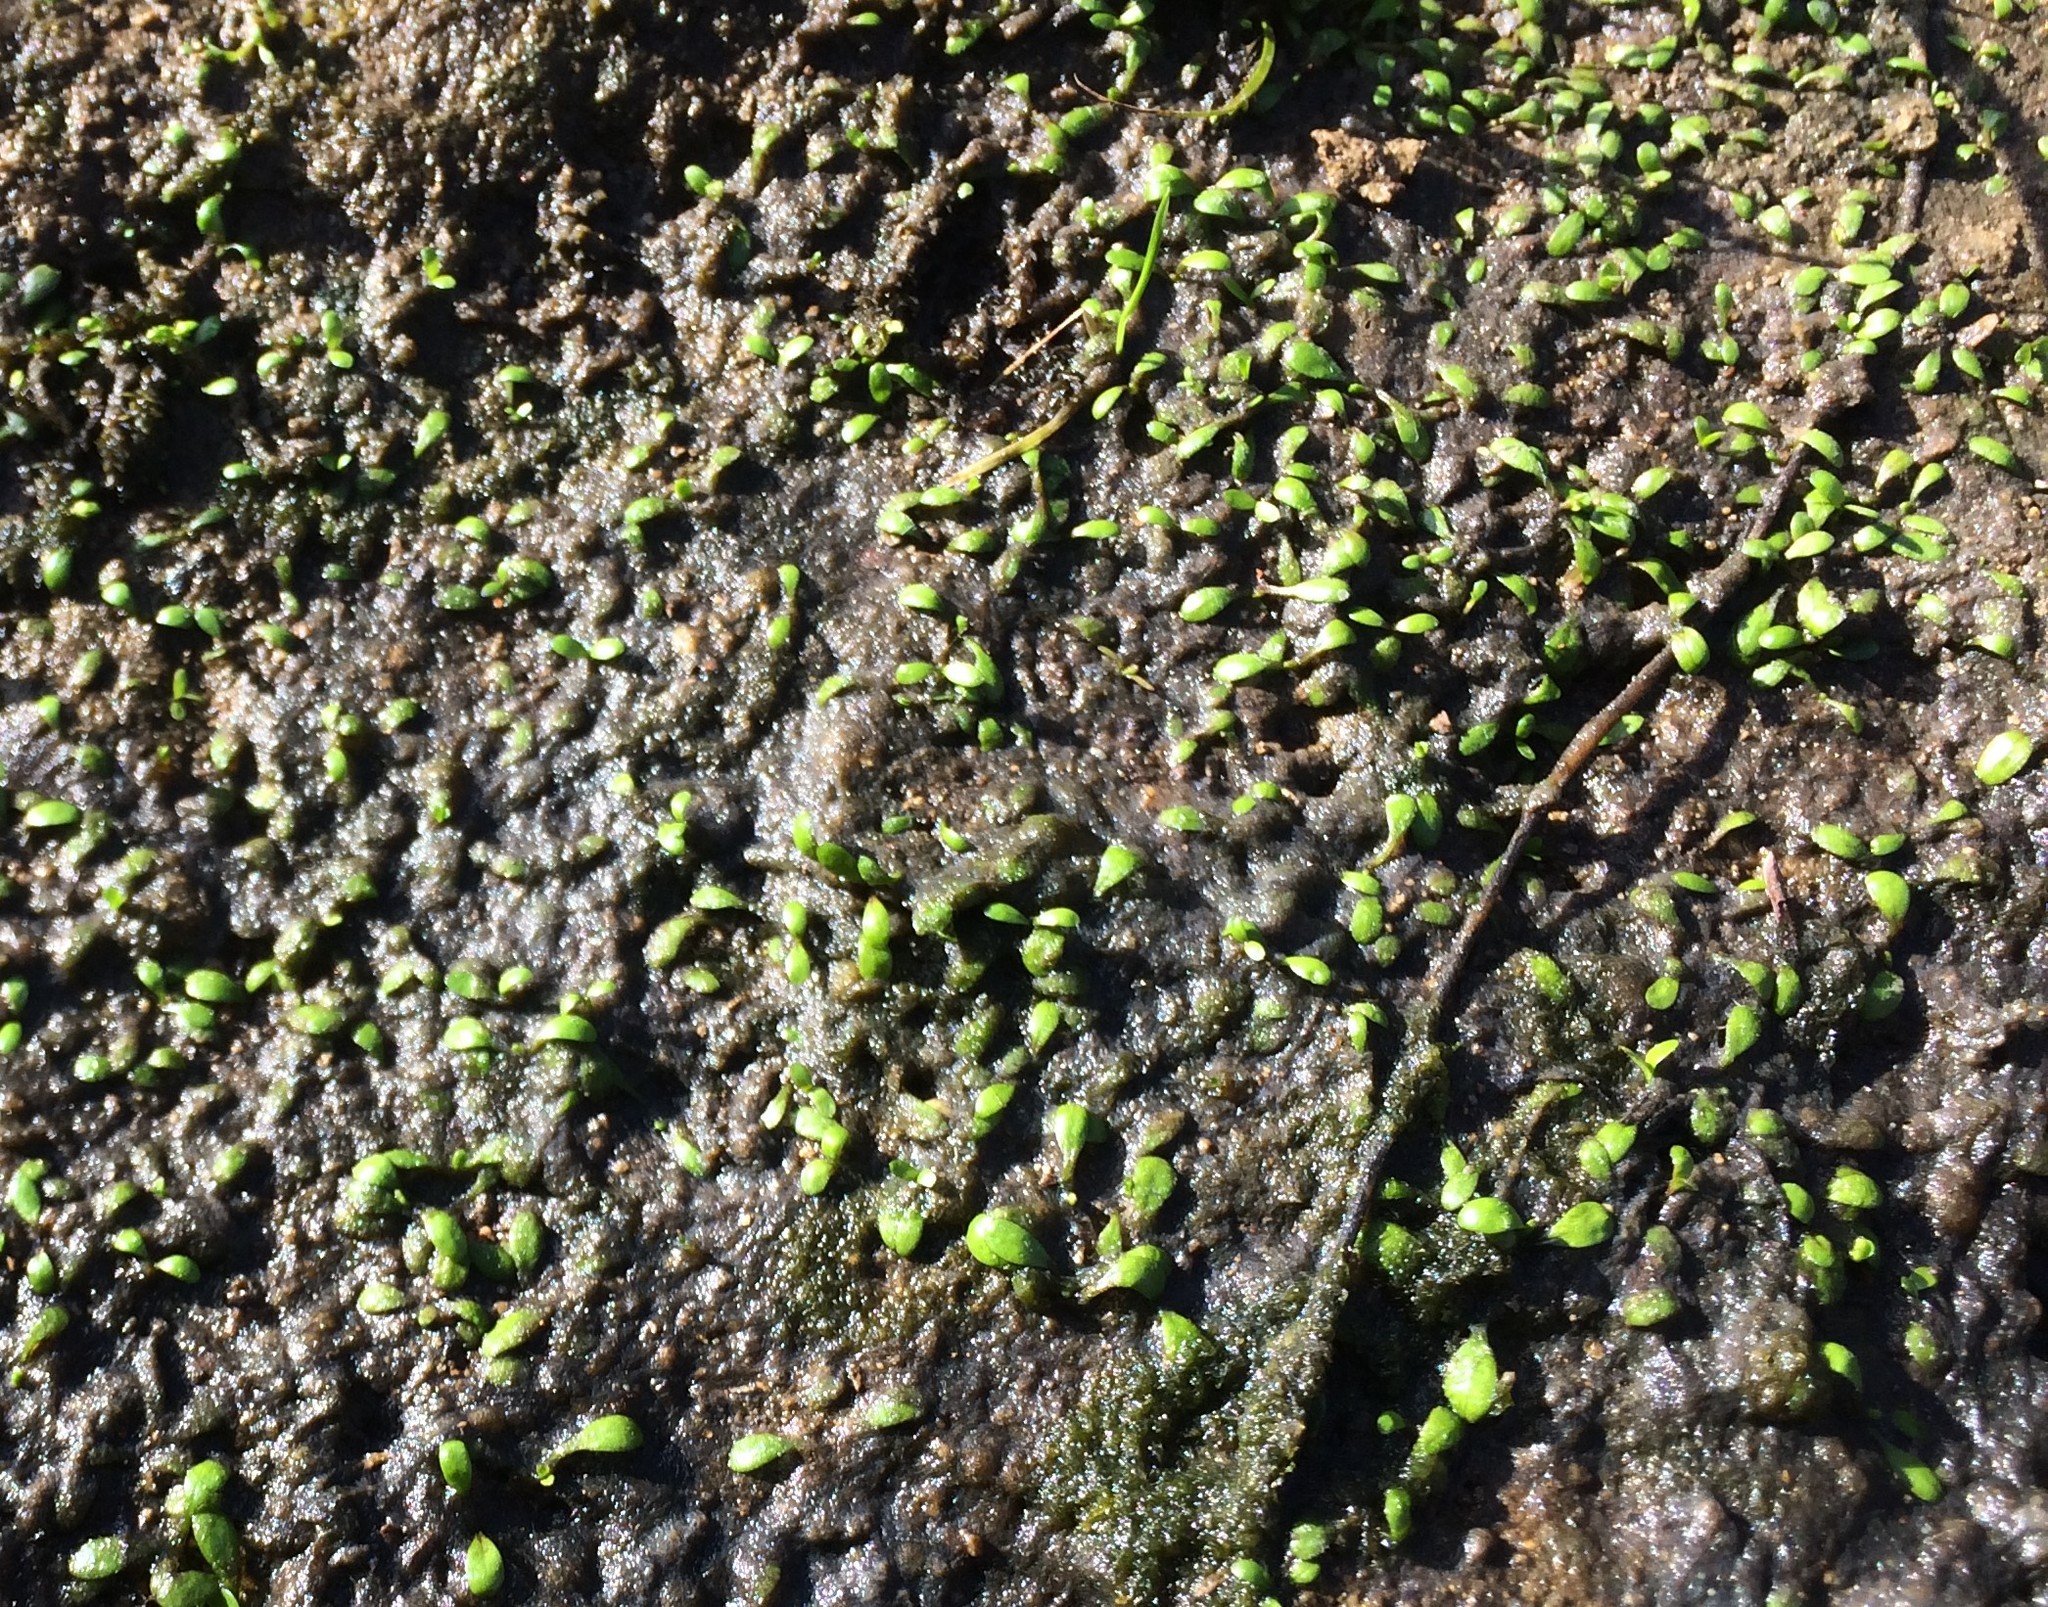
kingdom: Plantae
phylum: Tracheophyta
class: Magnoliopsida
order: Lamiales
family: Phrymaceae
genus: Glossostigma
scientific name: Glossostigma elatinoides
